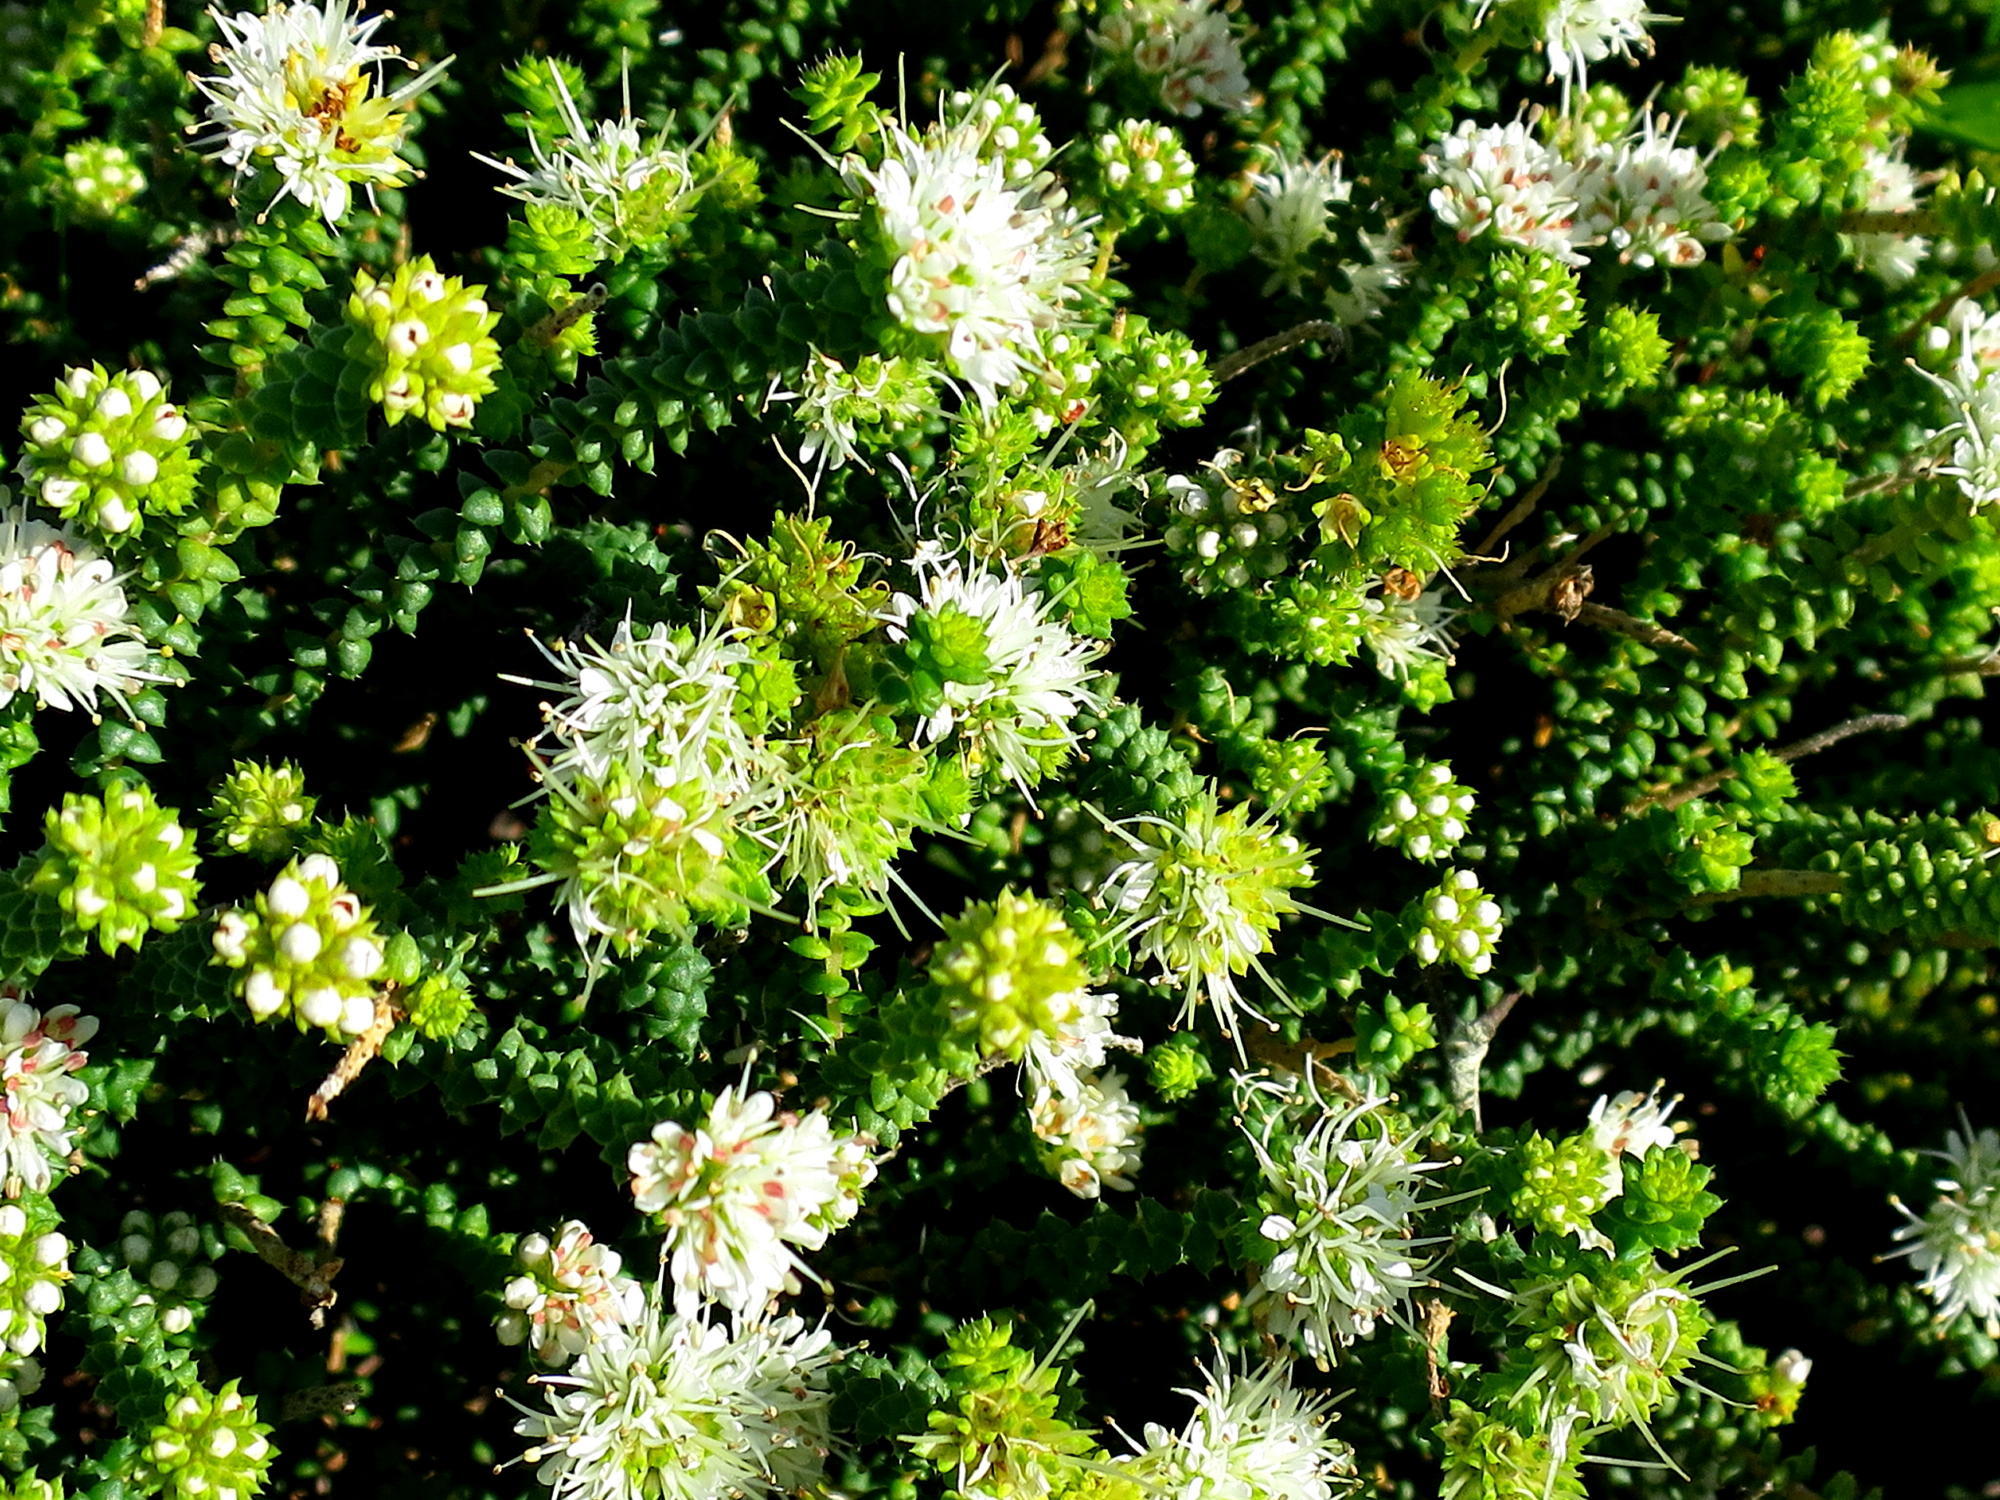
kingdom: Plantae
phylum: Tracheophyta
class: Magnoliopsida
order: Sapindales
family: Rutaceae
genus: Agathosma
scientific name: Agathosma apiculata
